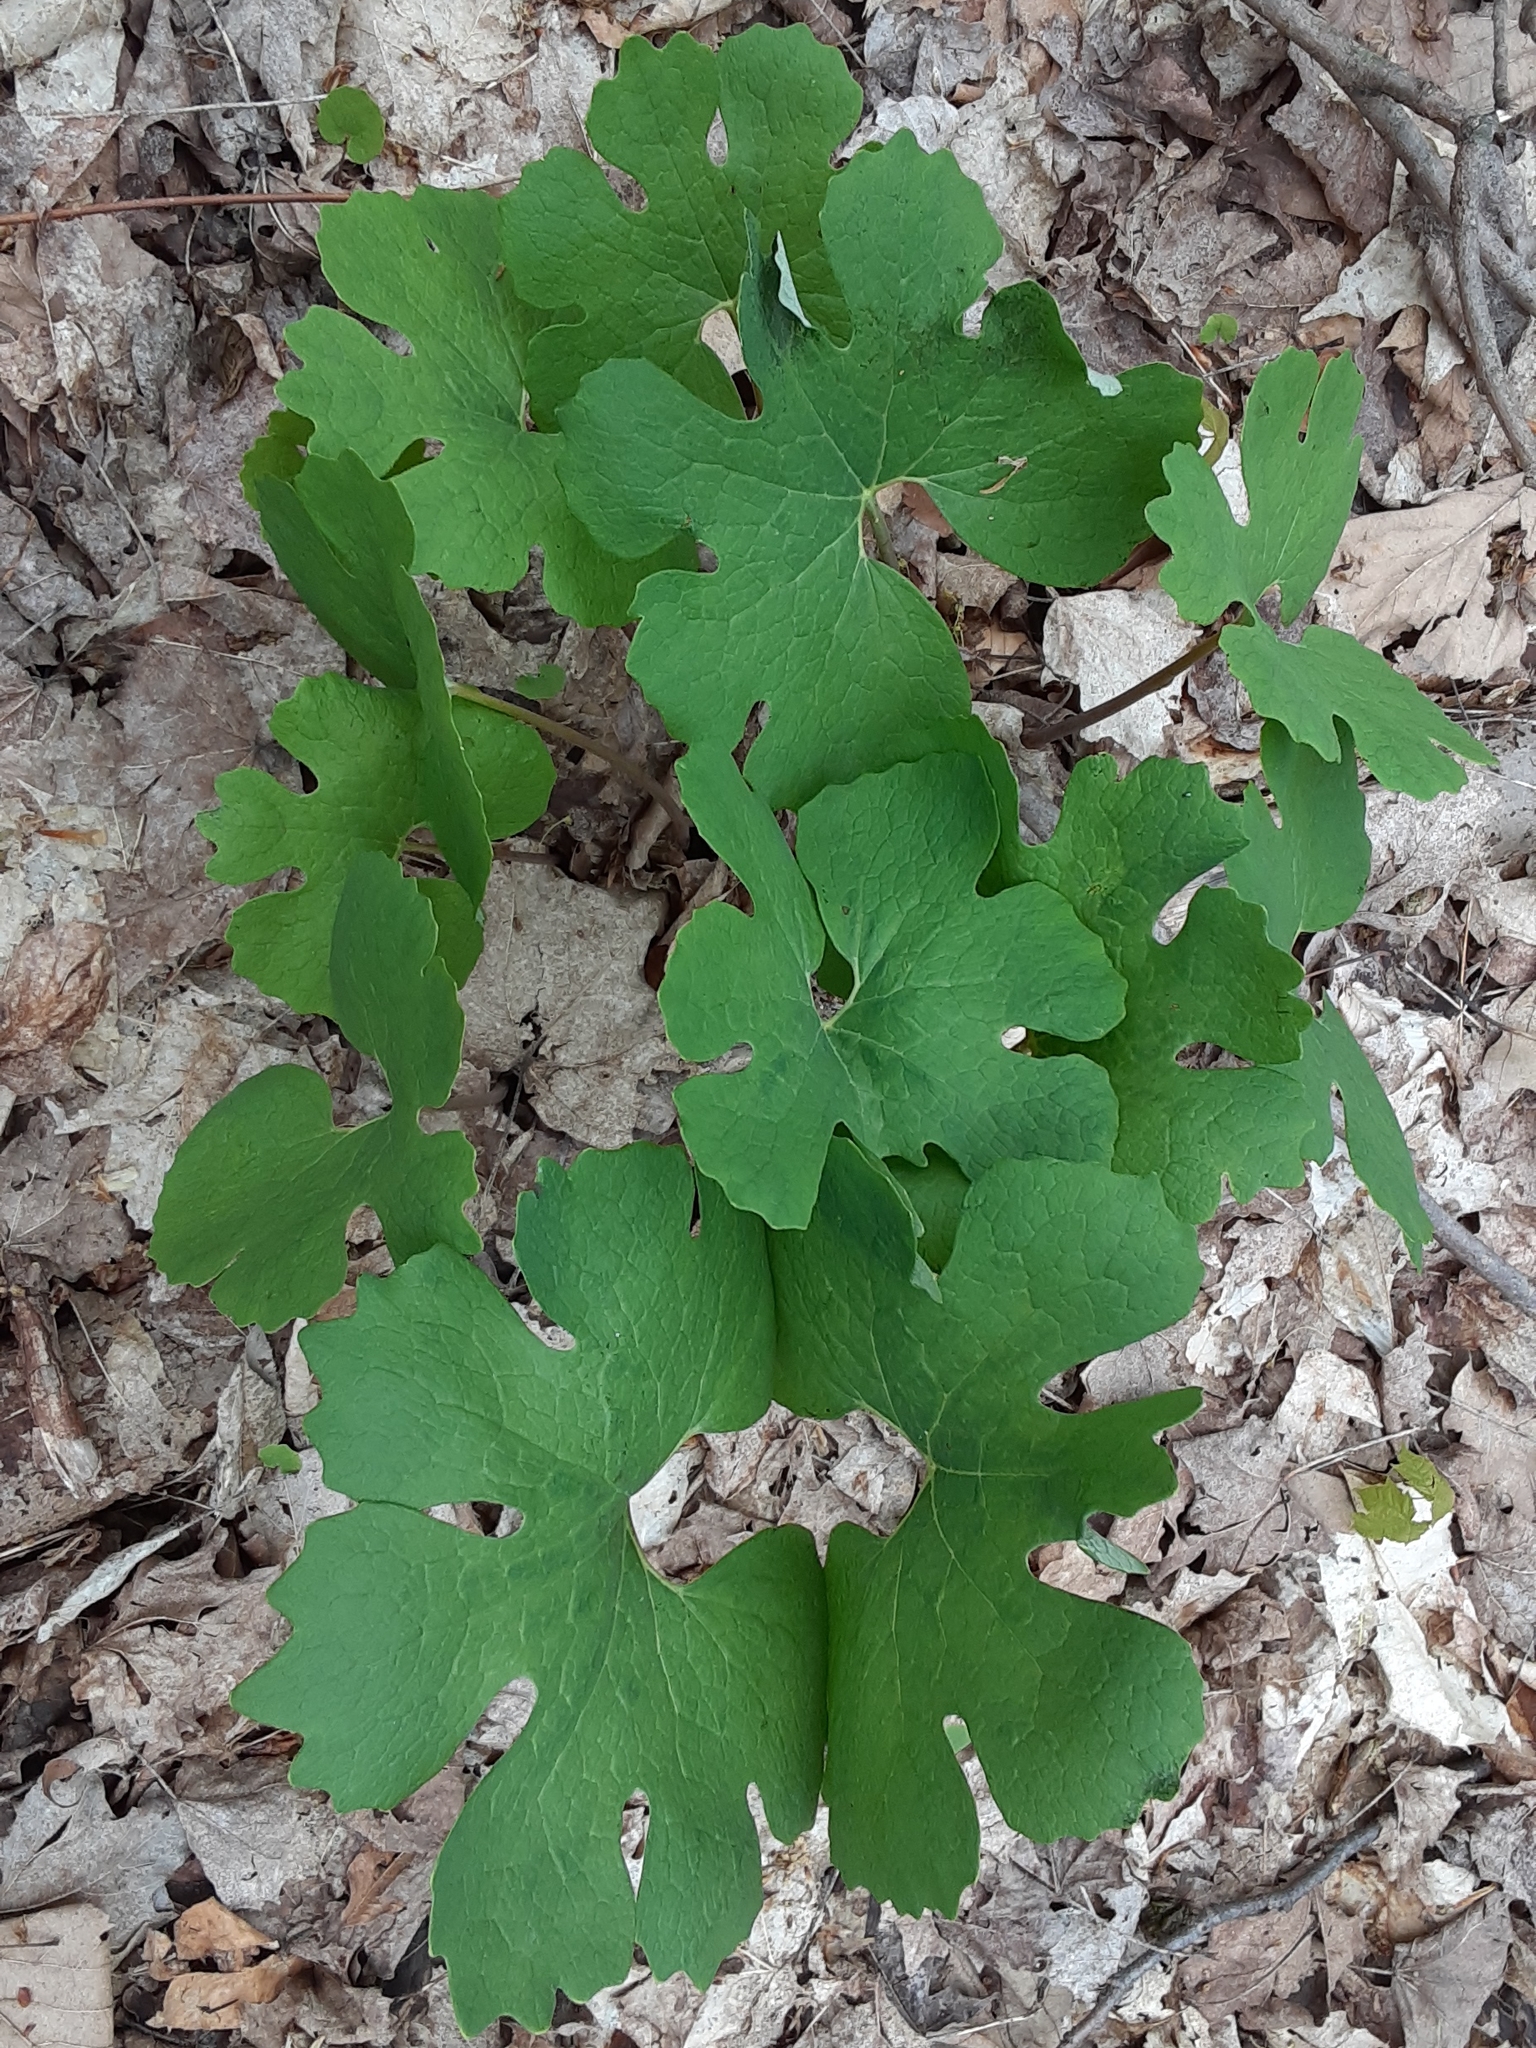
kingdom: Plantae
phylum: Tracheophyta
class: Magnoliopsida
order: Ranunculales
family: Papaveraceae
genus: Sanguinaria
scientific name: Sanguinaria canadensis
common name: Bloodroot
